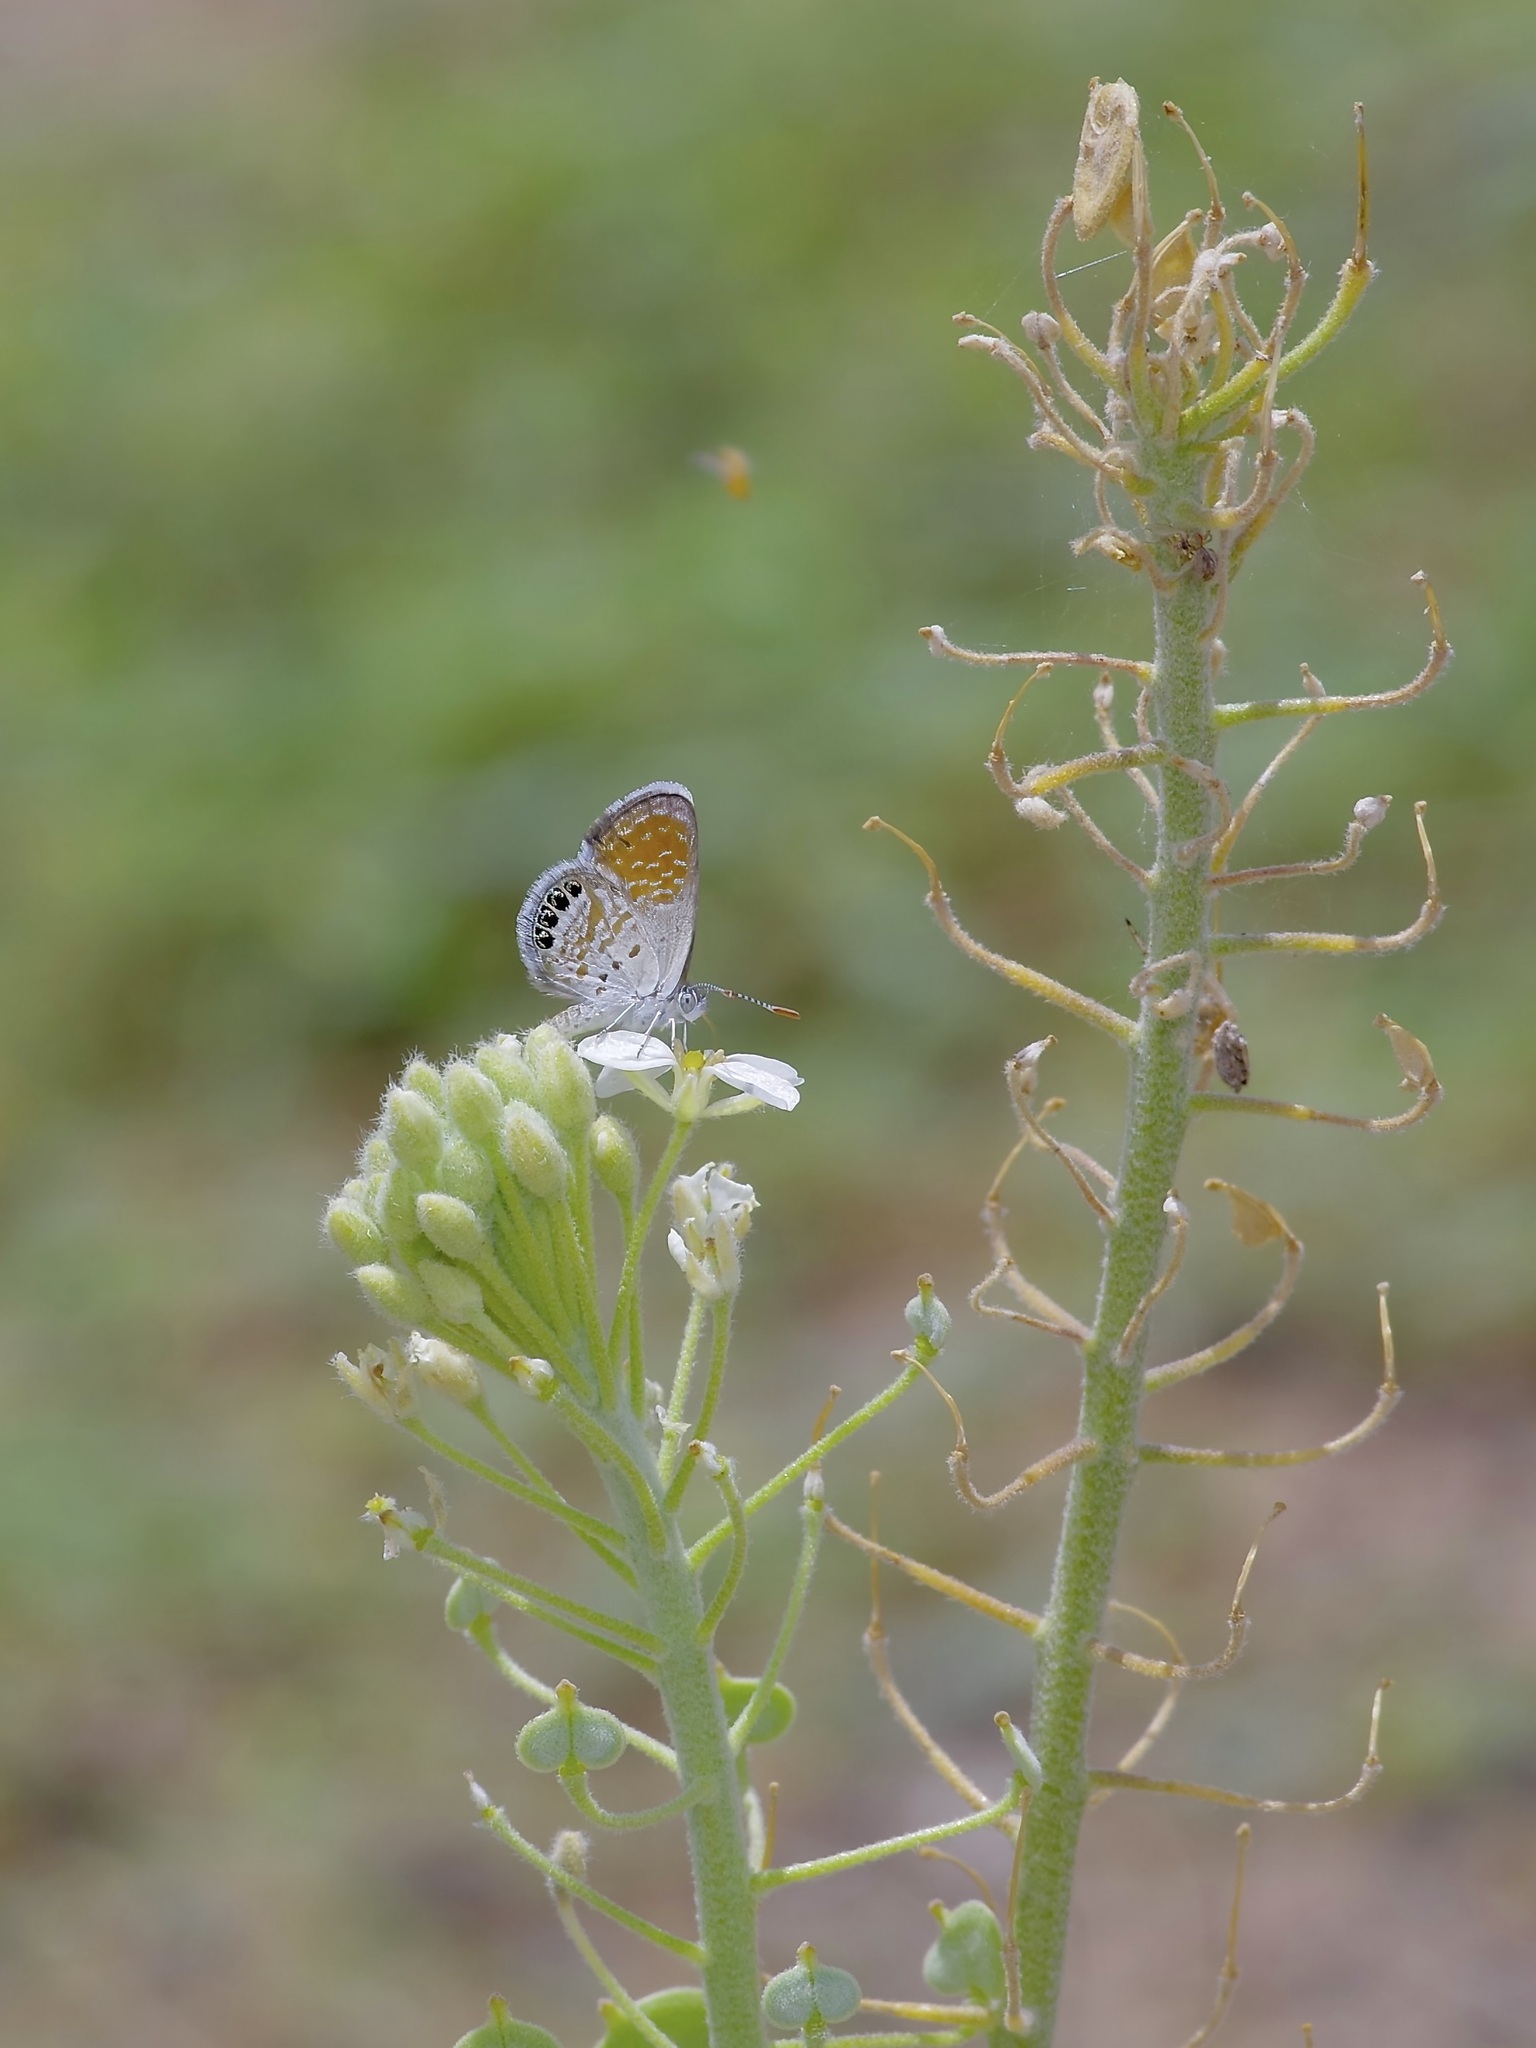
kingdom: Animalia
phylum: Arthropoda
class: Insecta
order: Lepidoptera
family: Lycaenidae
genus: Brephidium
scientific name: Brephidium exilis
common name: Pygmy blue
